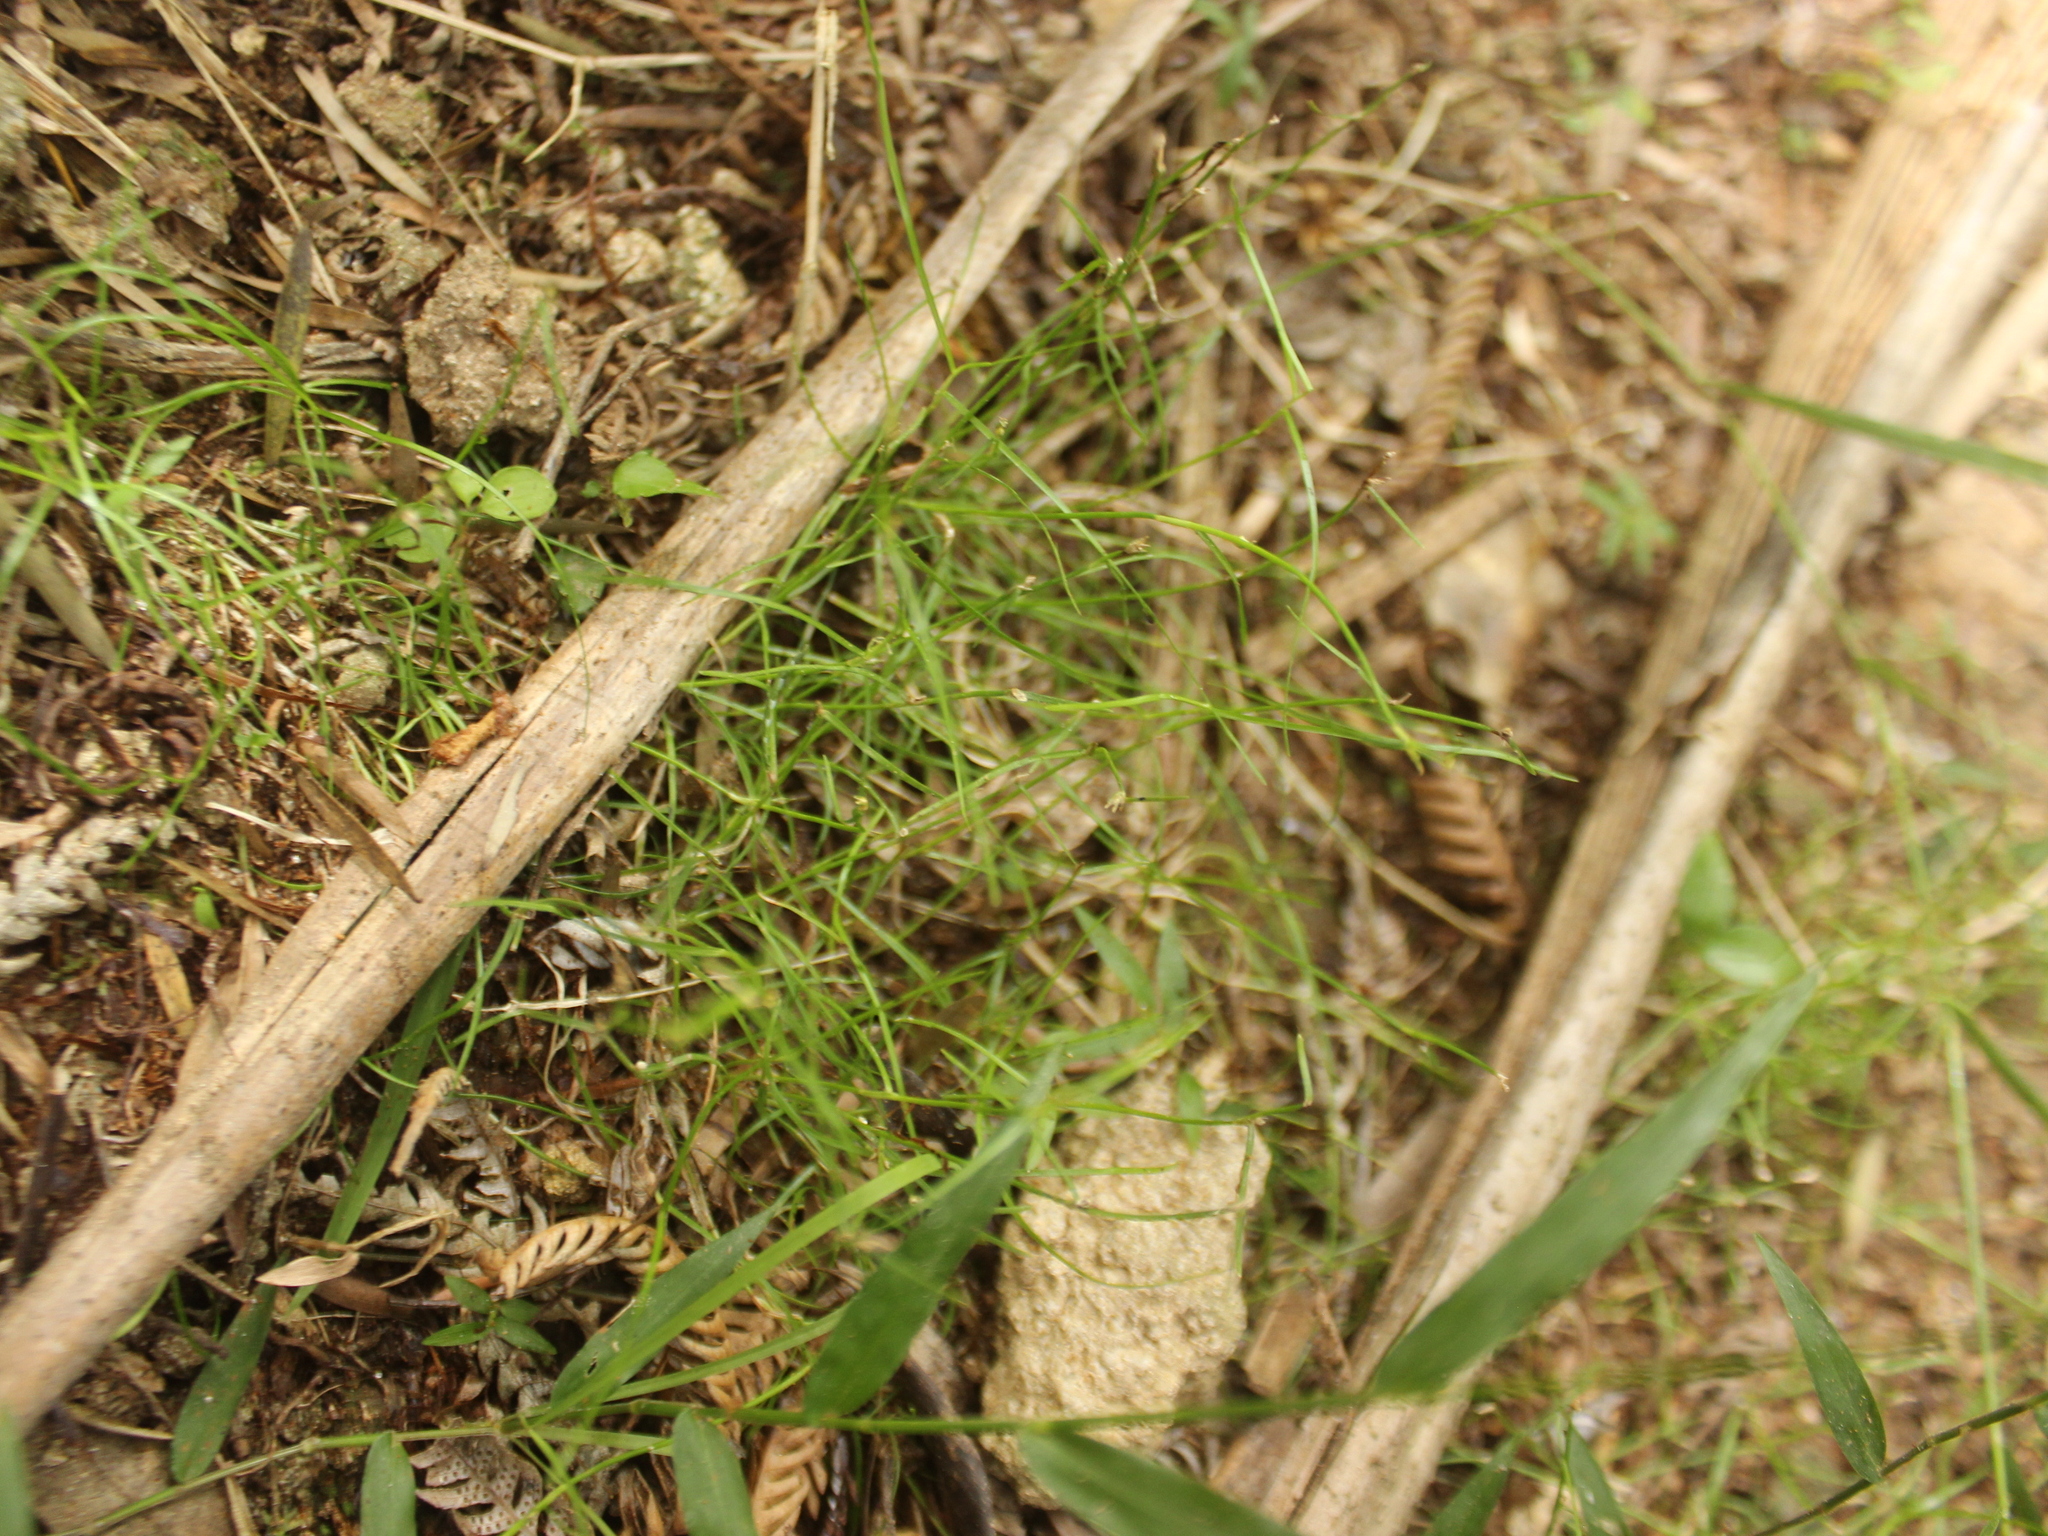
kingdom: Plantae
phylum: Tracheophyta
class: Liliopsida
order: Poales
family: Cyperaceae
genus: Schoenus
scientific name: Schoenus maschalinus
